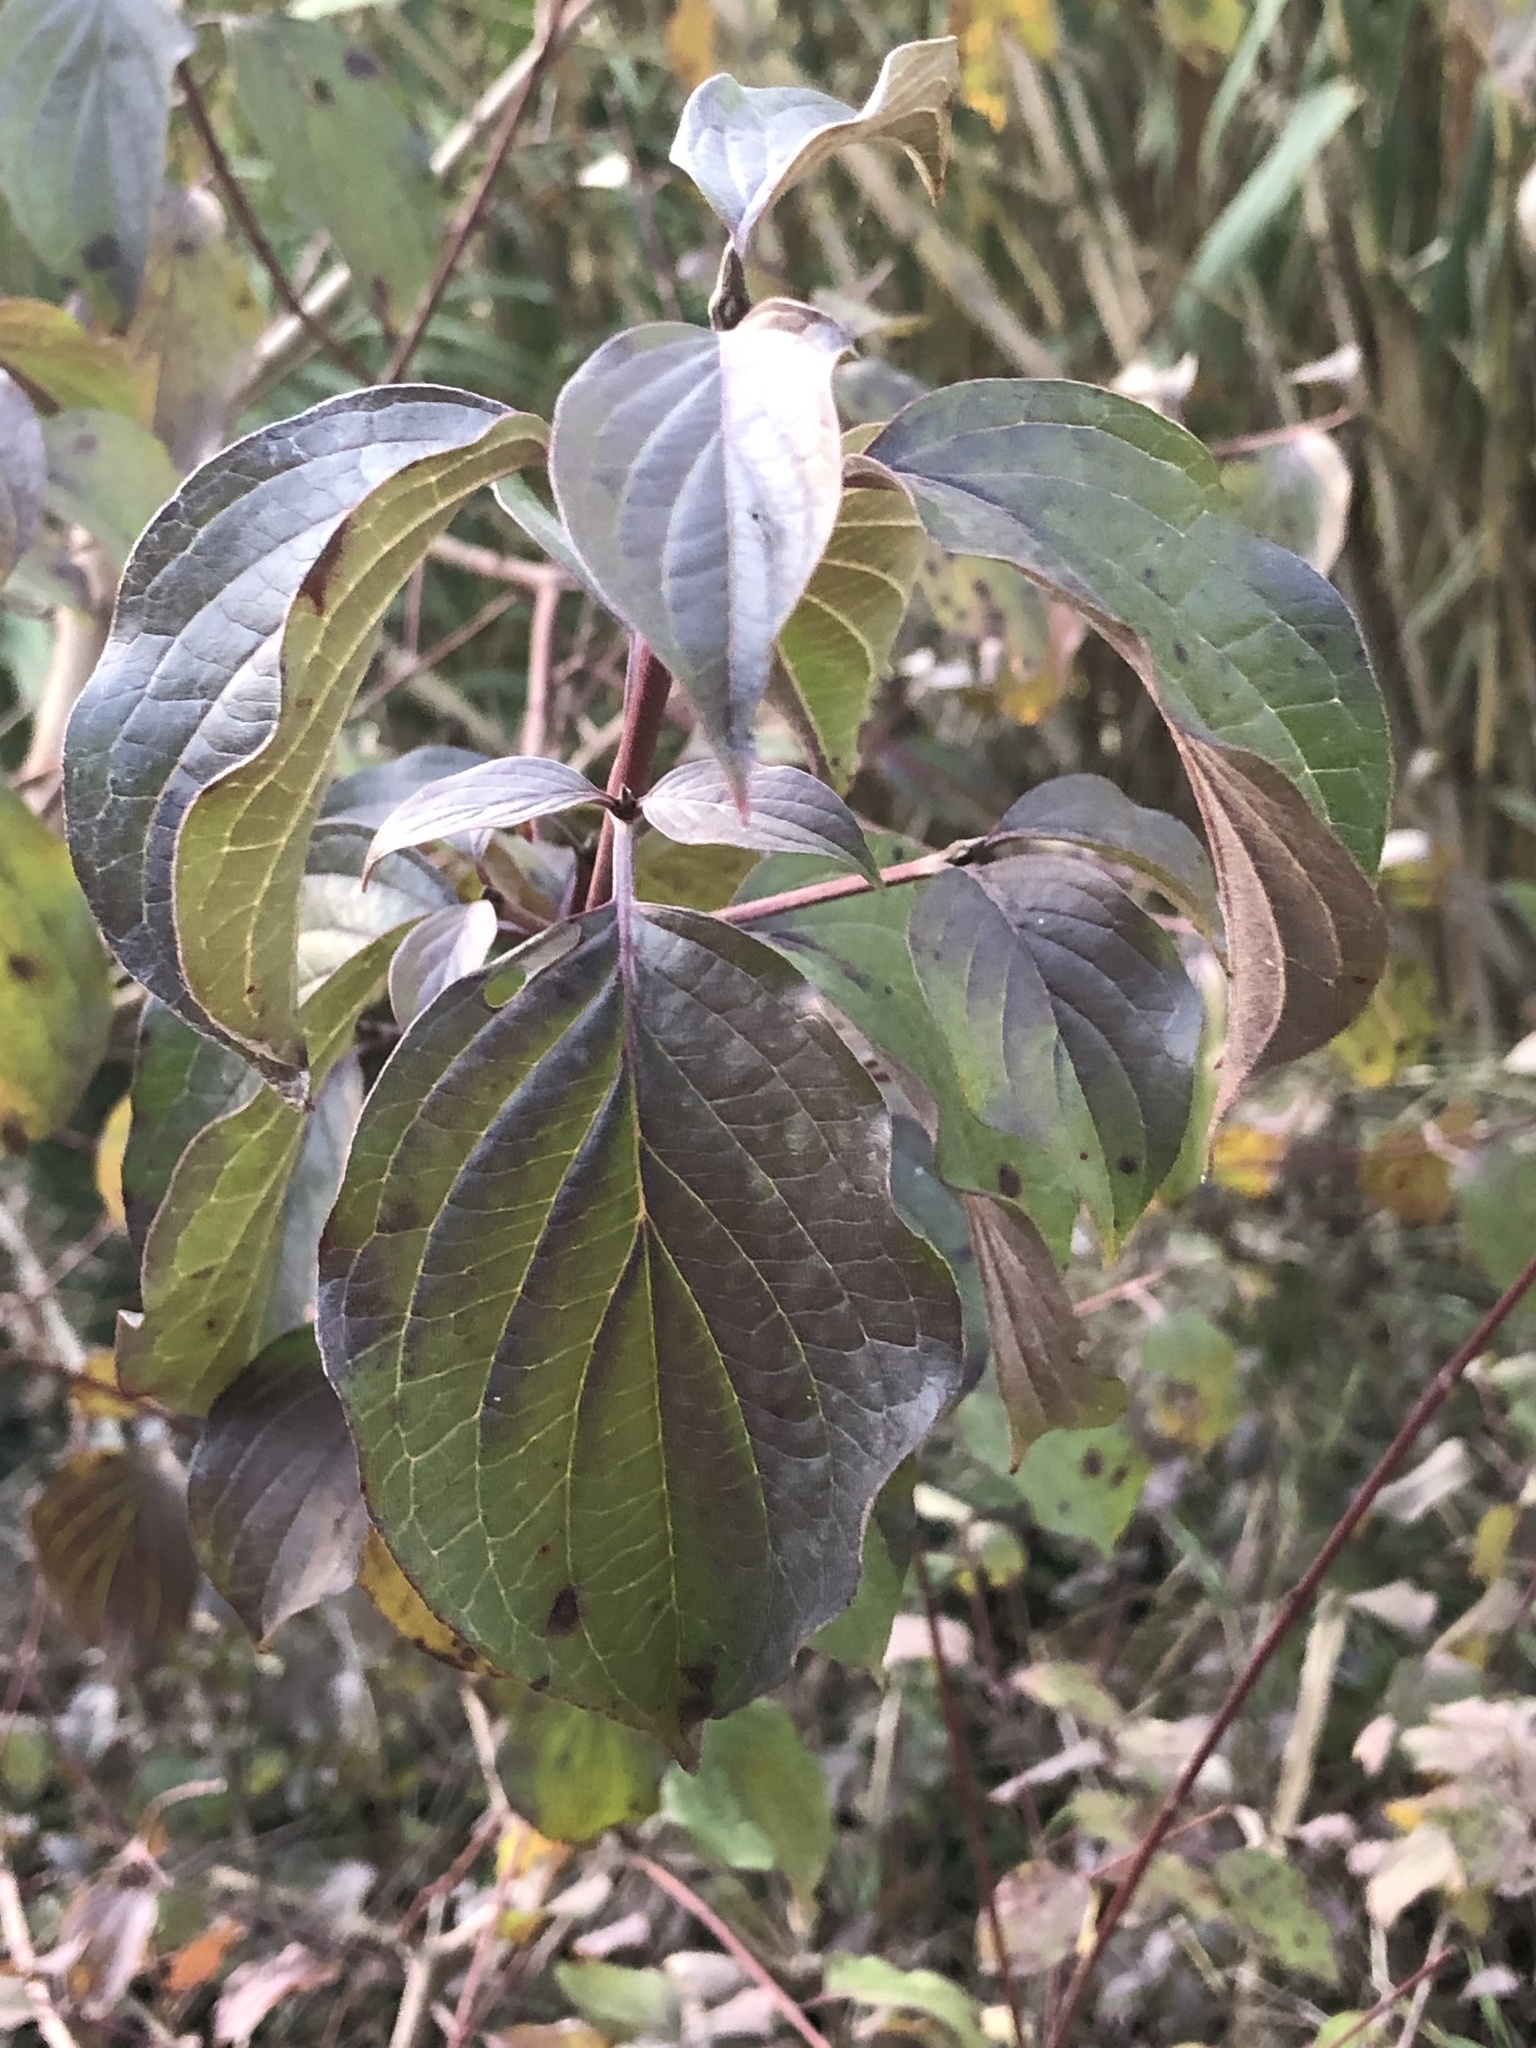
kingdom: Plantae
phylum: Tracheophyta
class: Magnoliopsida
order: Cornales
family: Cornaceae
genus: Cornus
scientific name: Cornus sanguinea
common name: Dogwood
